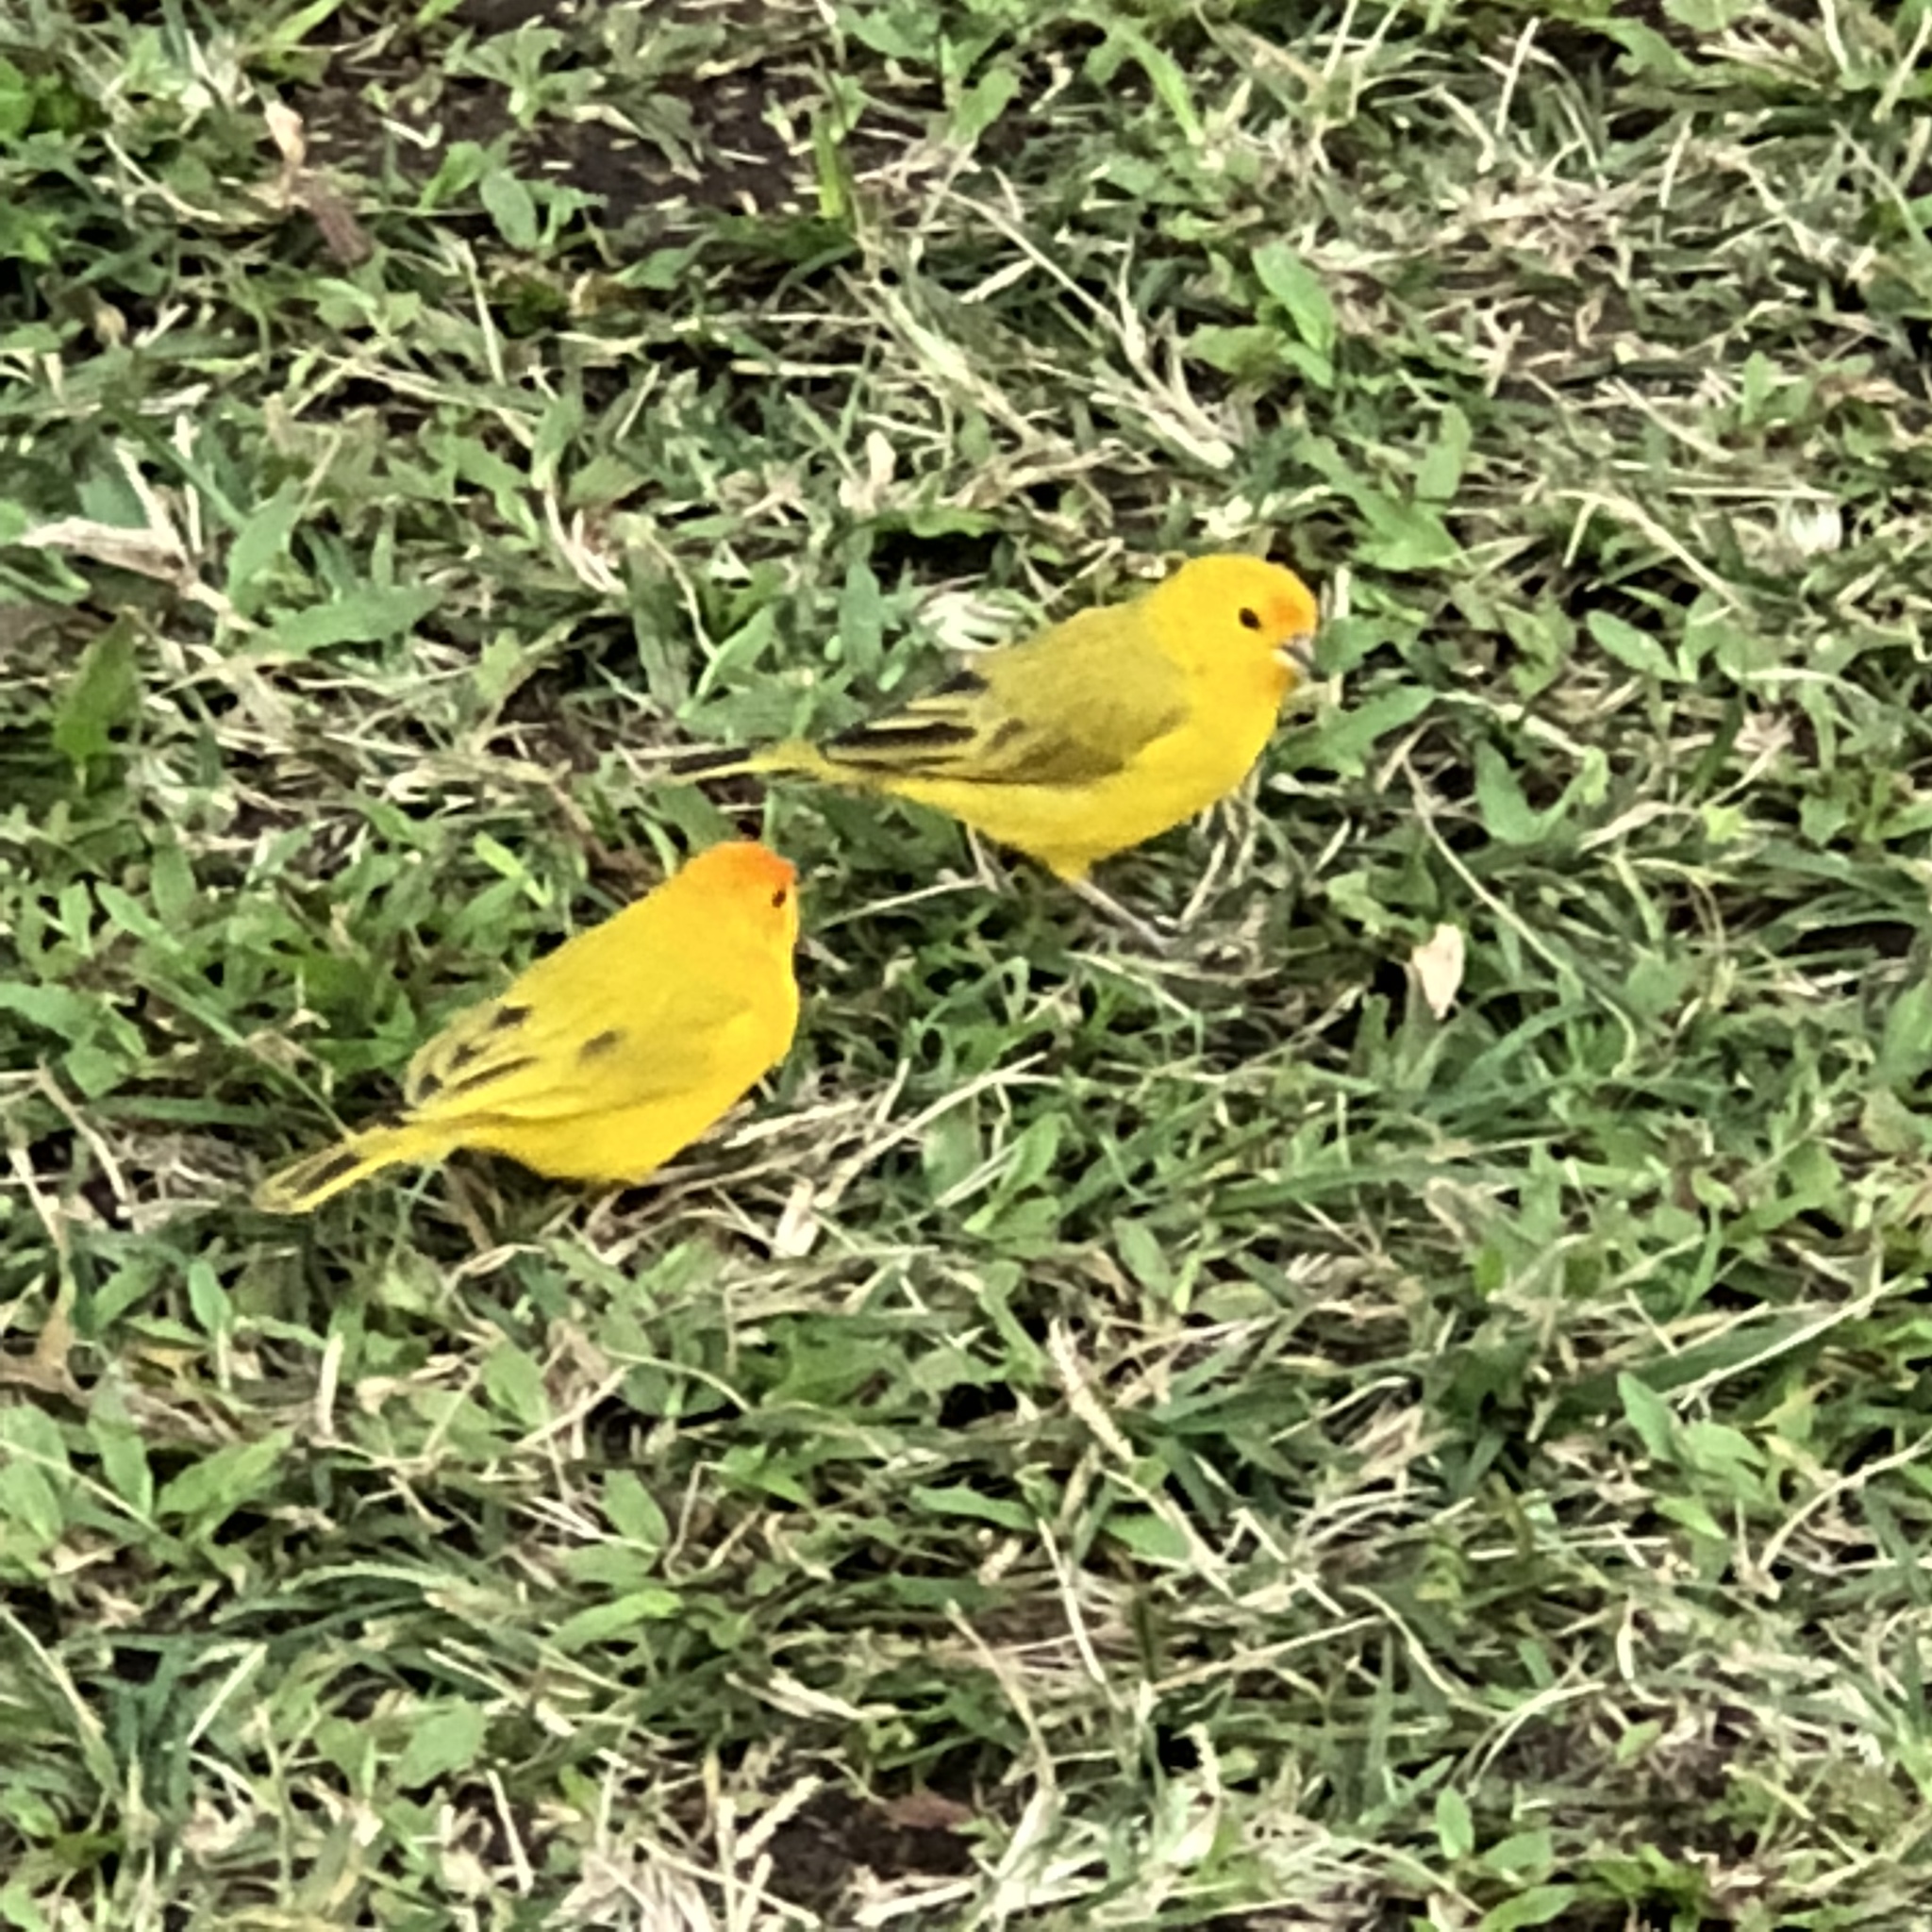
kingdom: Animalia
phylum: Chordata
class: Aves
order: Passeriformes
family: Thraupidae
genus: Sicalis
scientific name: Sicalis flaveola
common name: Saffron finch
